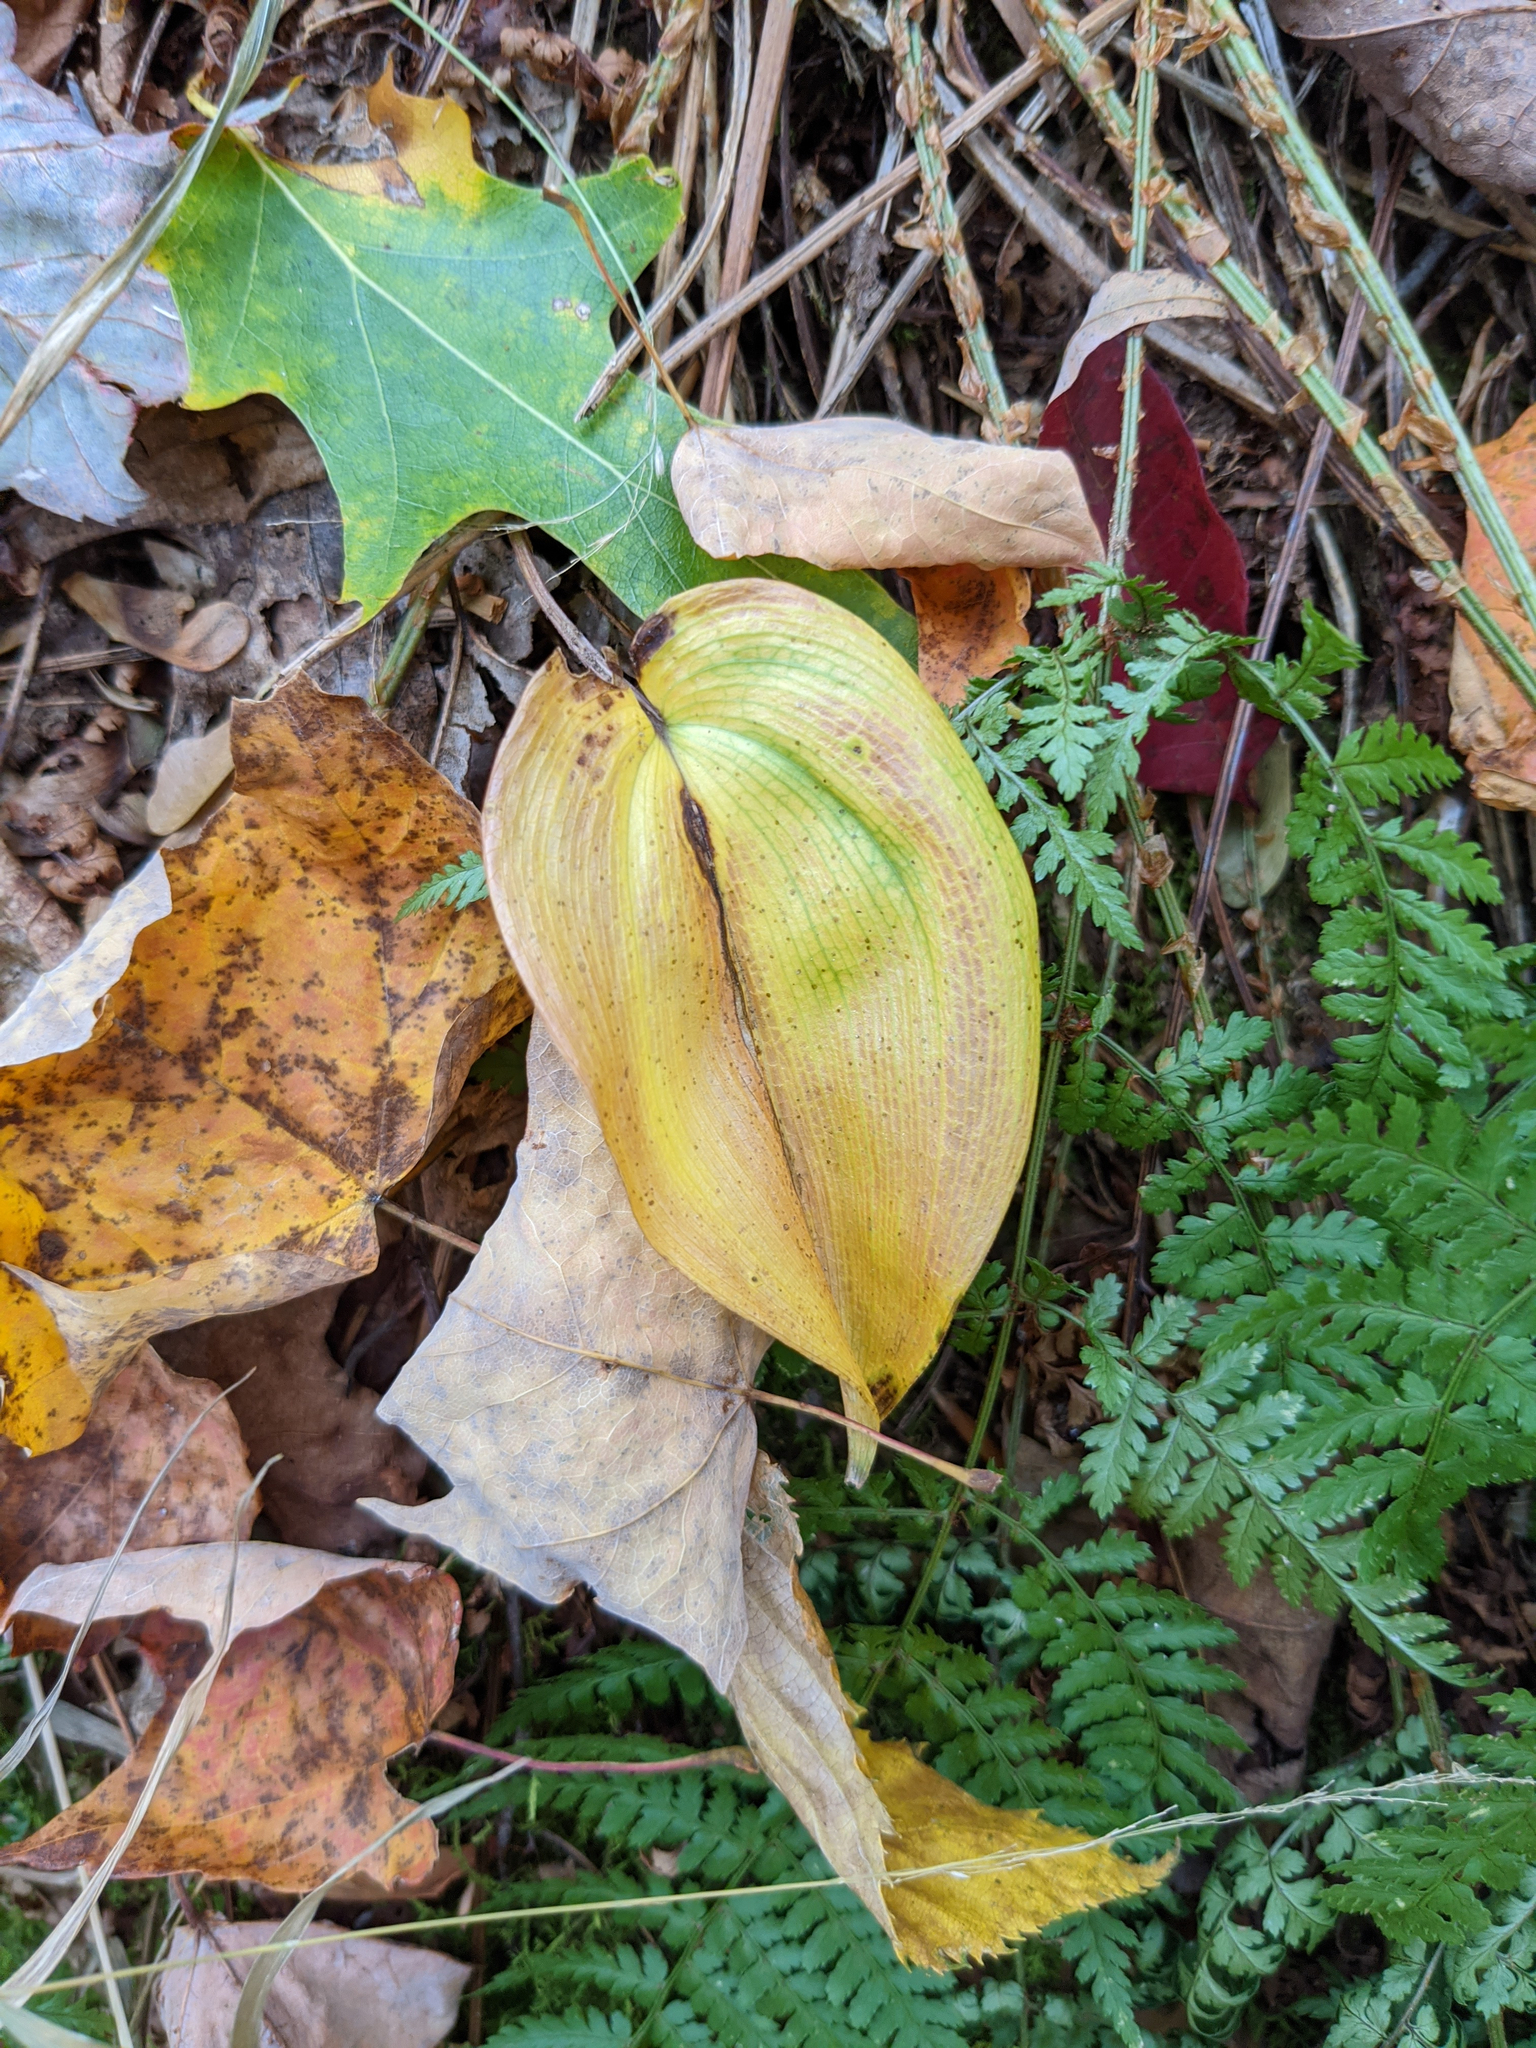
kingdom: Plantae
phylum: Tracheophyta
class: Liliopsida
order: Asparagales
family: Asparagaceae
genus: Maianthemum
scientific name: Maianthemum canadense
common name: False lily-of-the-valley
